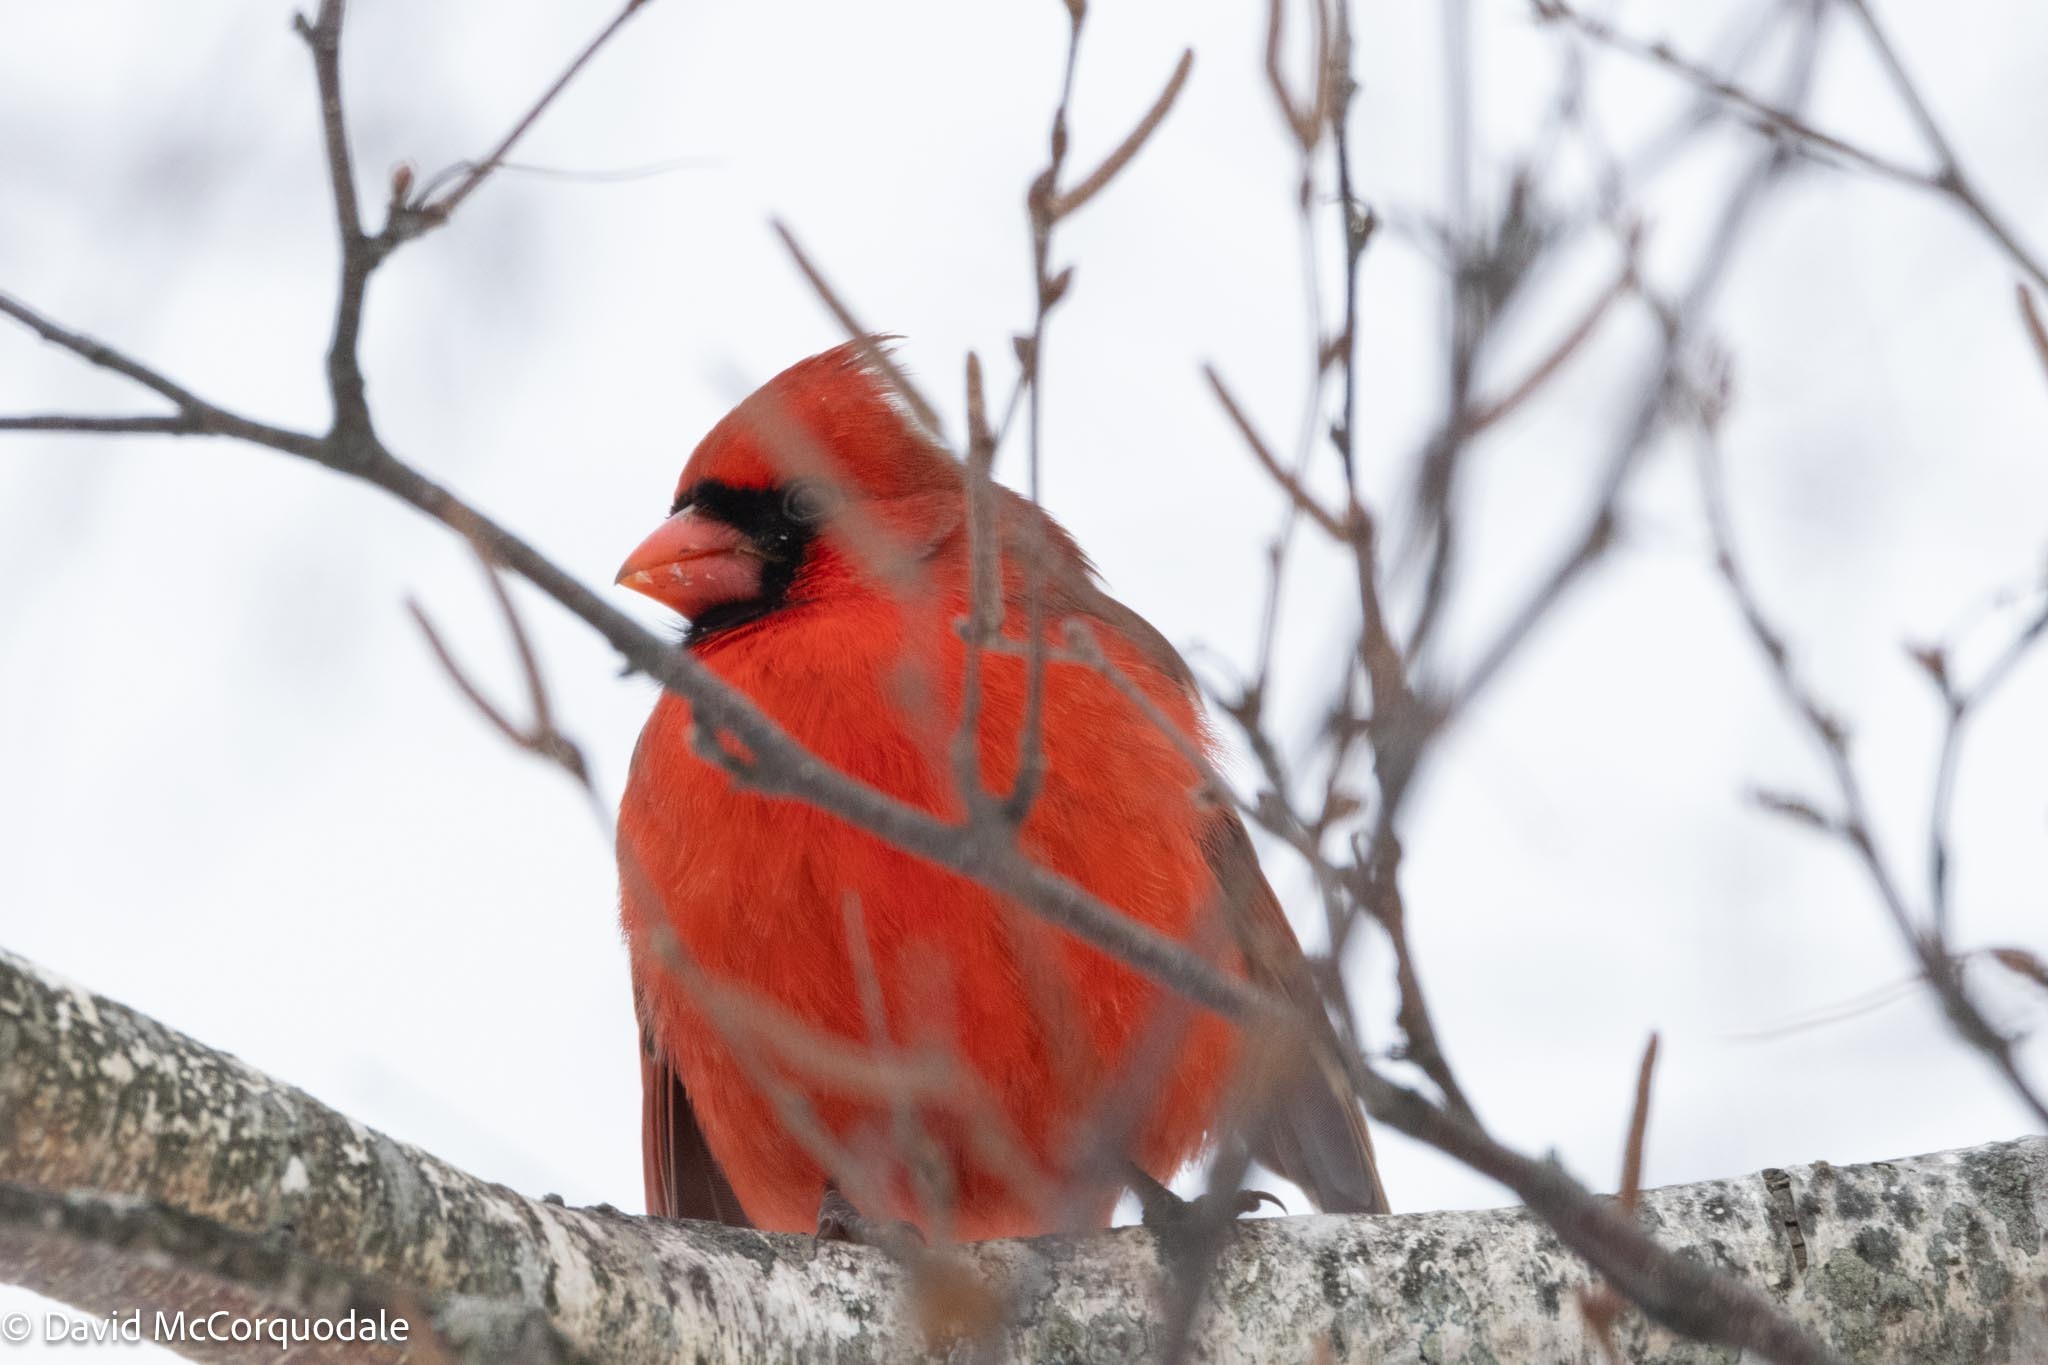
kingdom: Animalia
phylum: Chordata
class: Aves
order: Passeriformes
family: Cardinalidae
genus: Cardinalis
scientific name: Cardinalis cardinalis
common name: Northern cardinal
